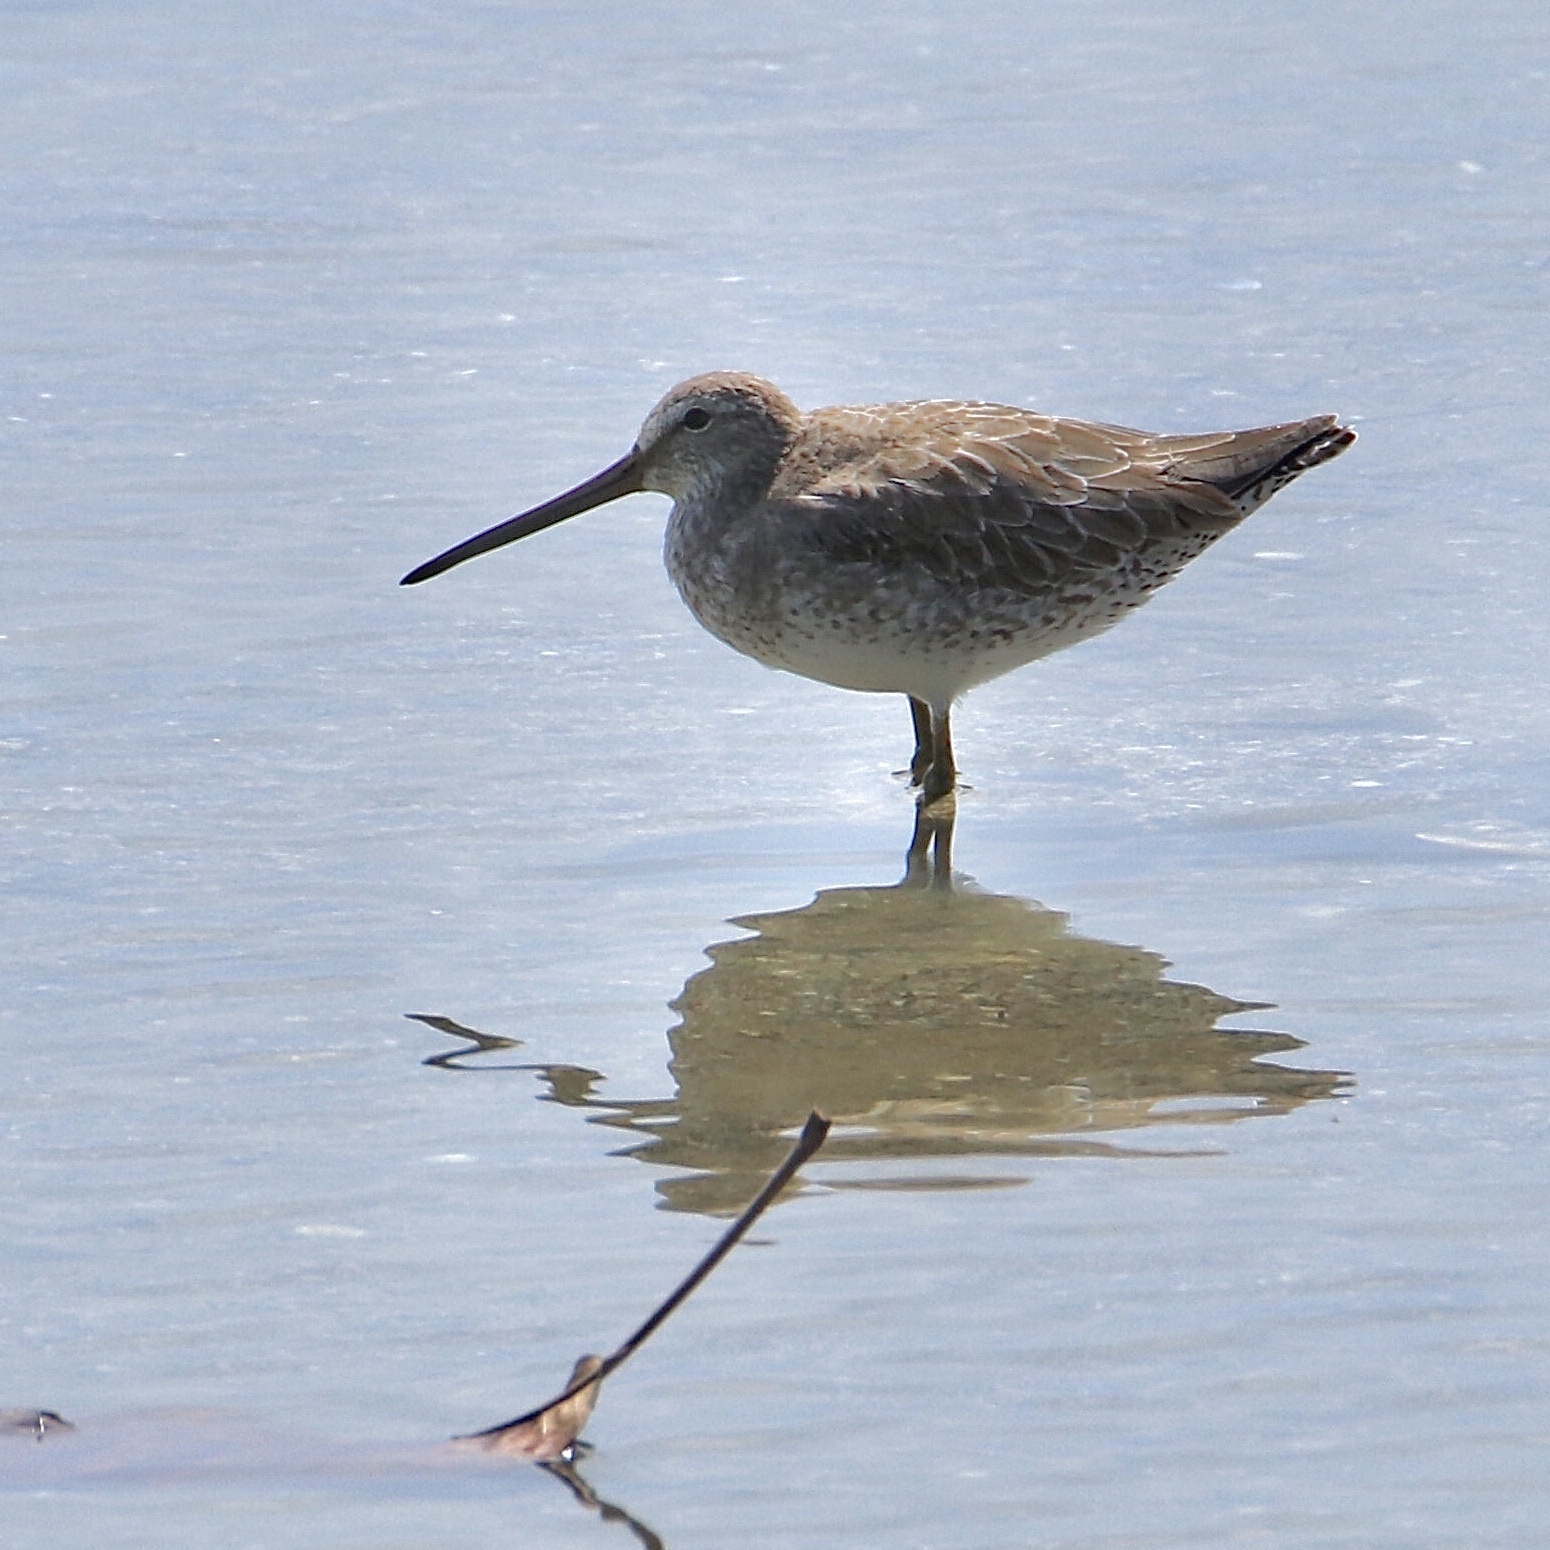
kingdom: Animalia
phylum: Chordata
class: Aves
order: Charadriiformes
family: Scolopacidae
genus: Limnodromus
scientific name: Limnodromus griseus
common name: Short-billed dowitcher
